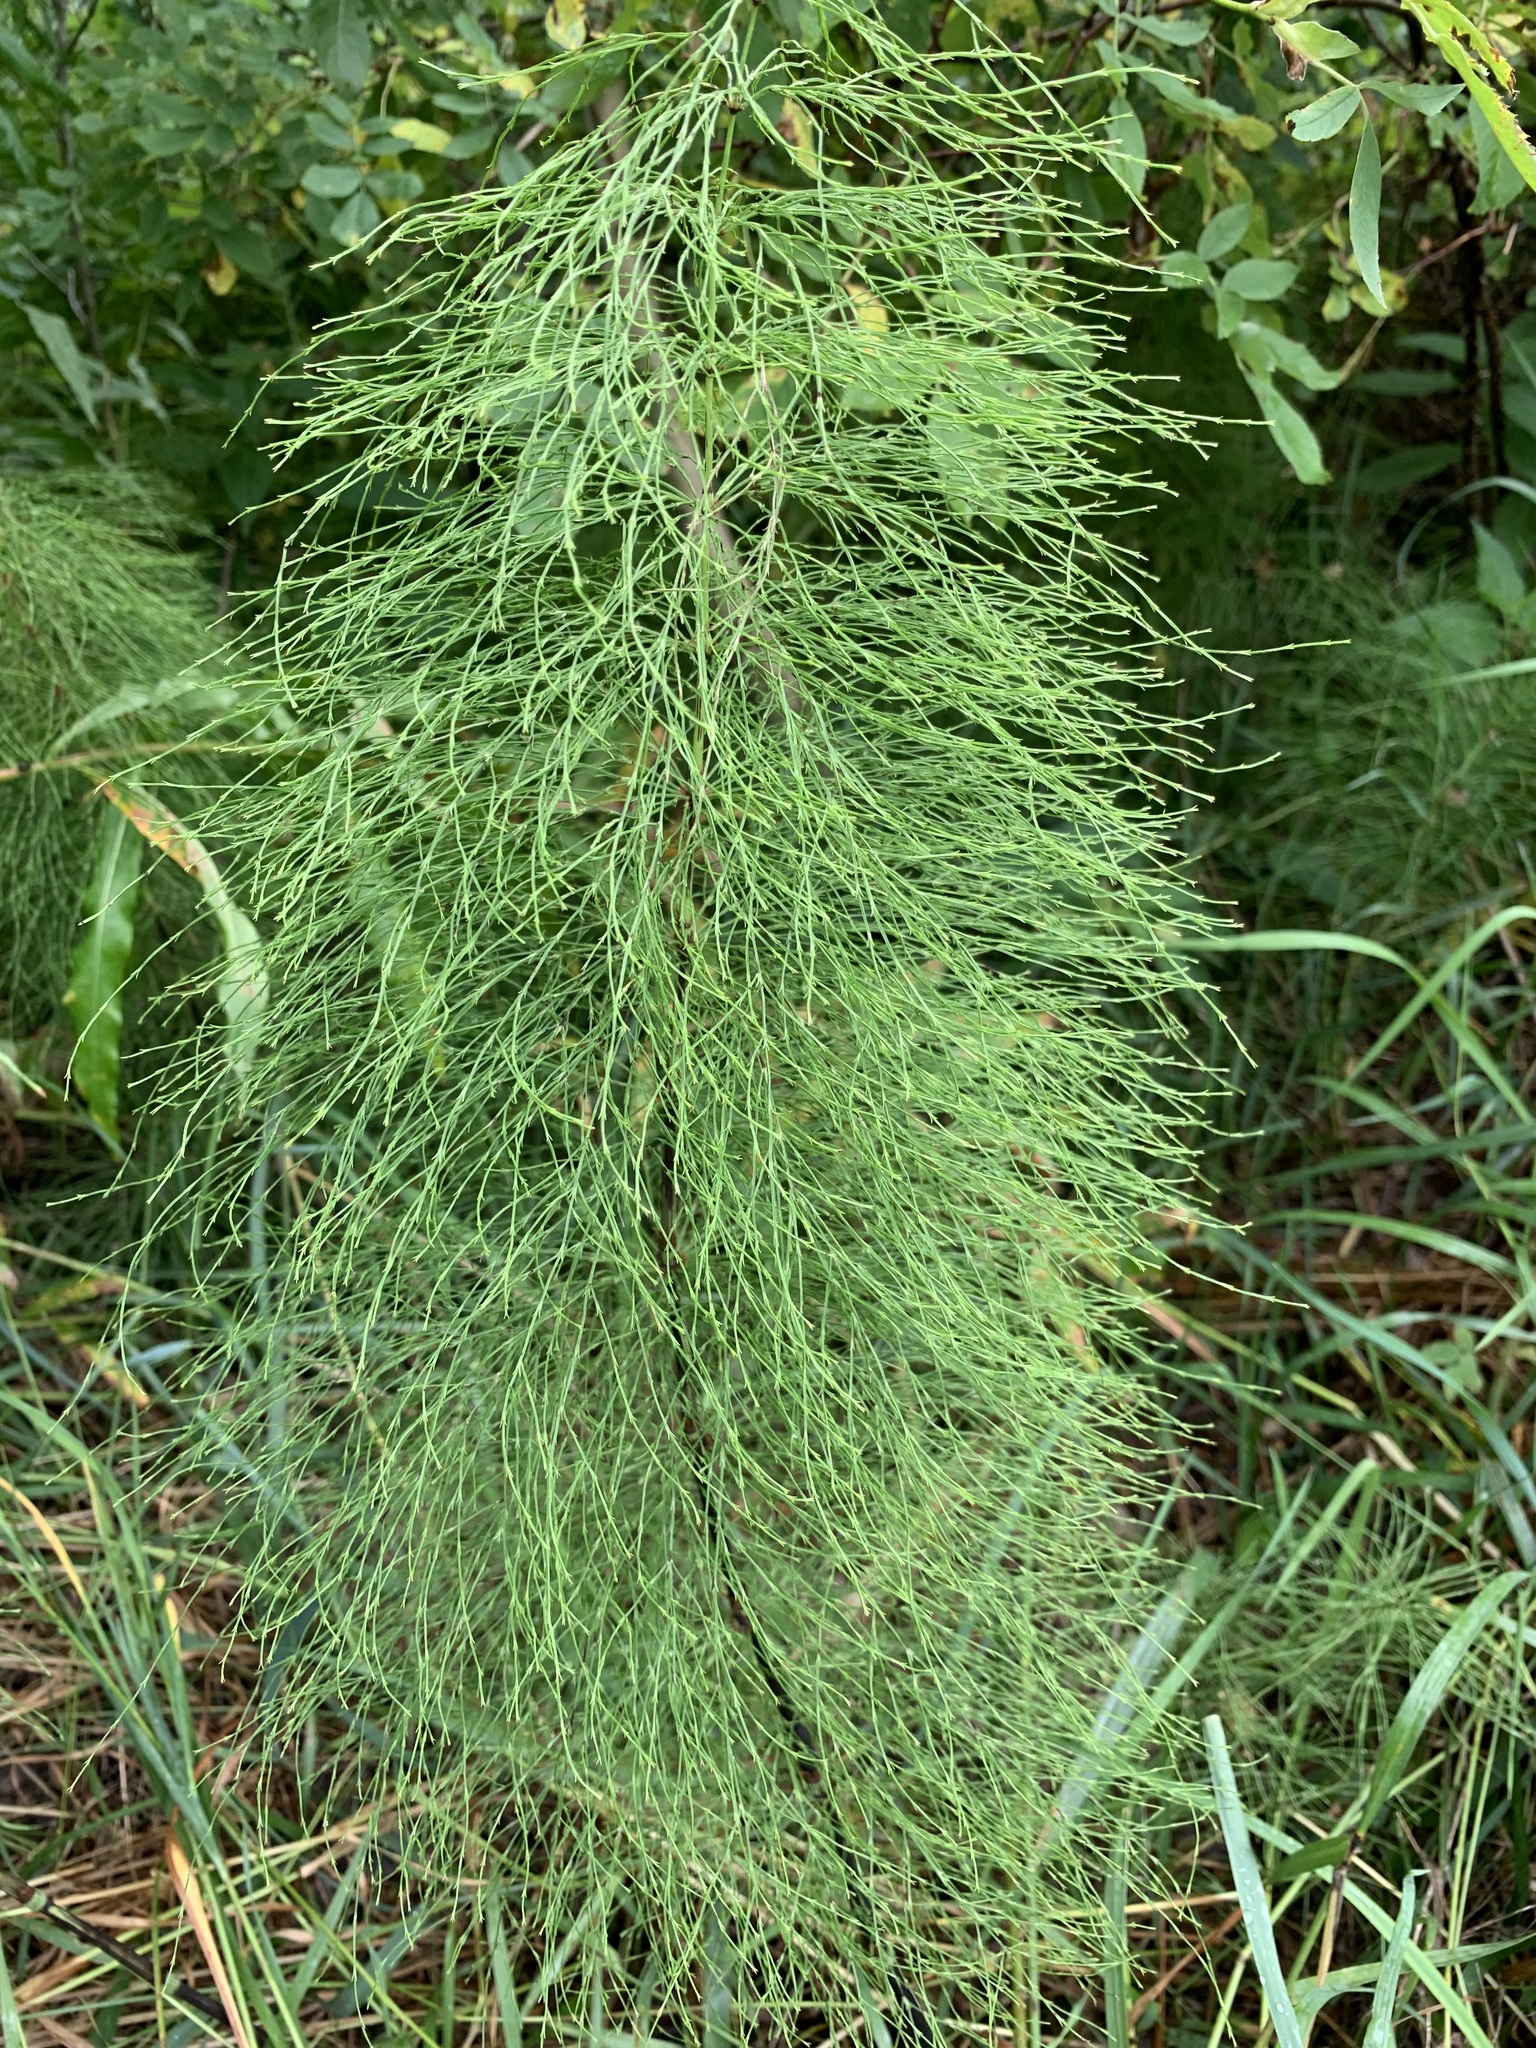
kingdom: Plantae
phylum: Tracheophyta
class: Polypodiopsida
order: Equisetales
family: Equisetaceae
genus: Equisetum
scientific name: Equisetum sylvaticum
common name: Wood horsetail
